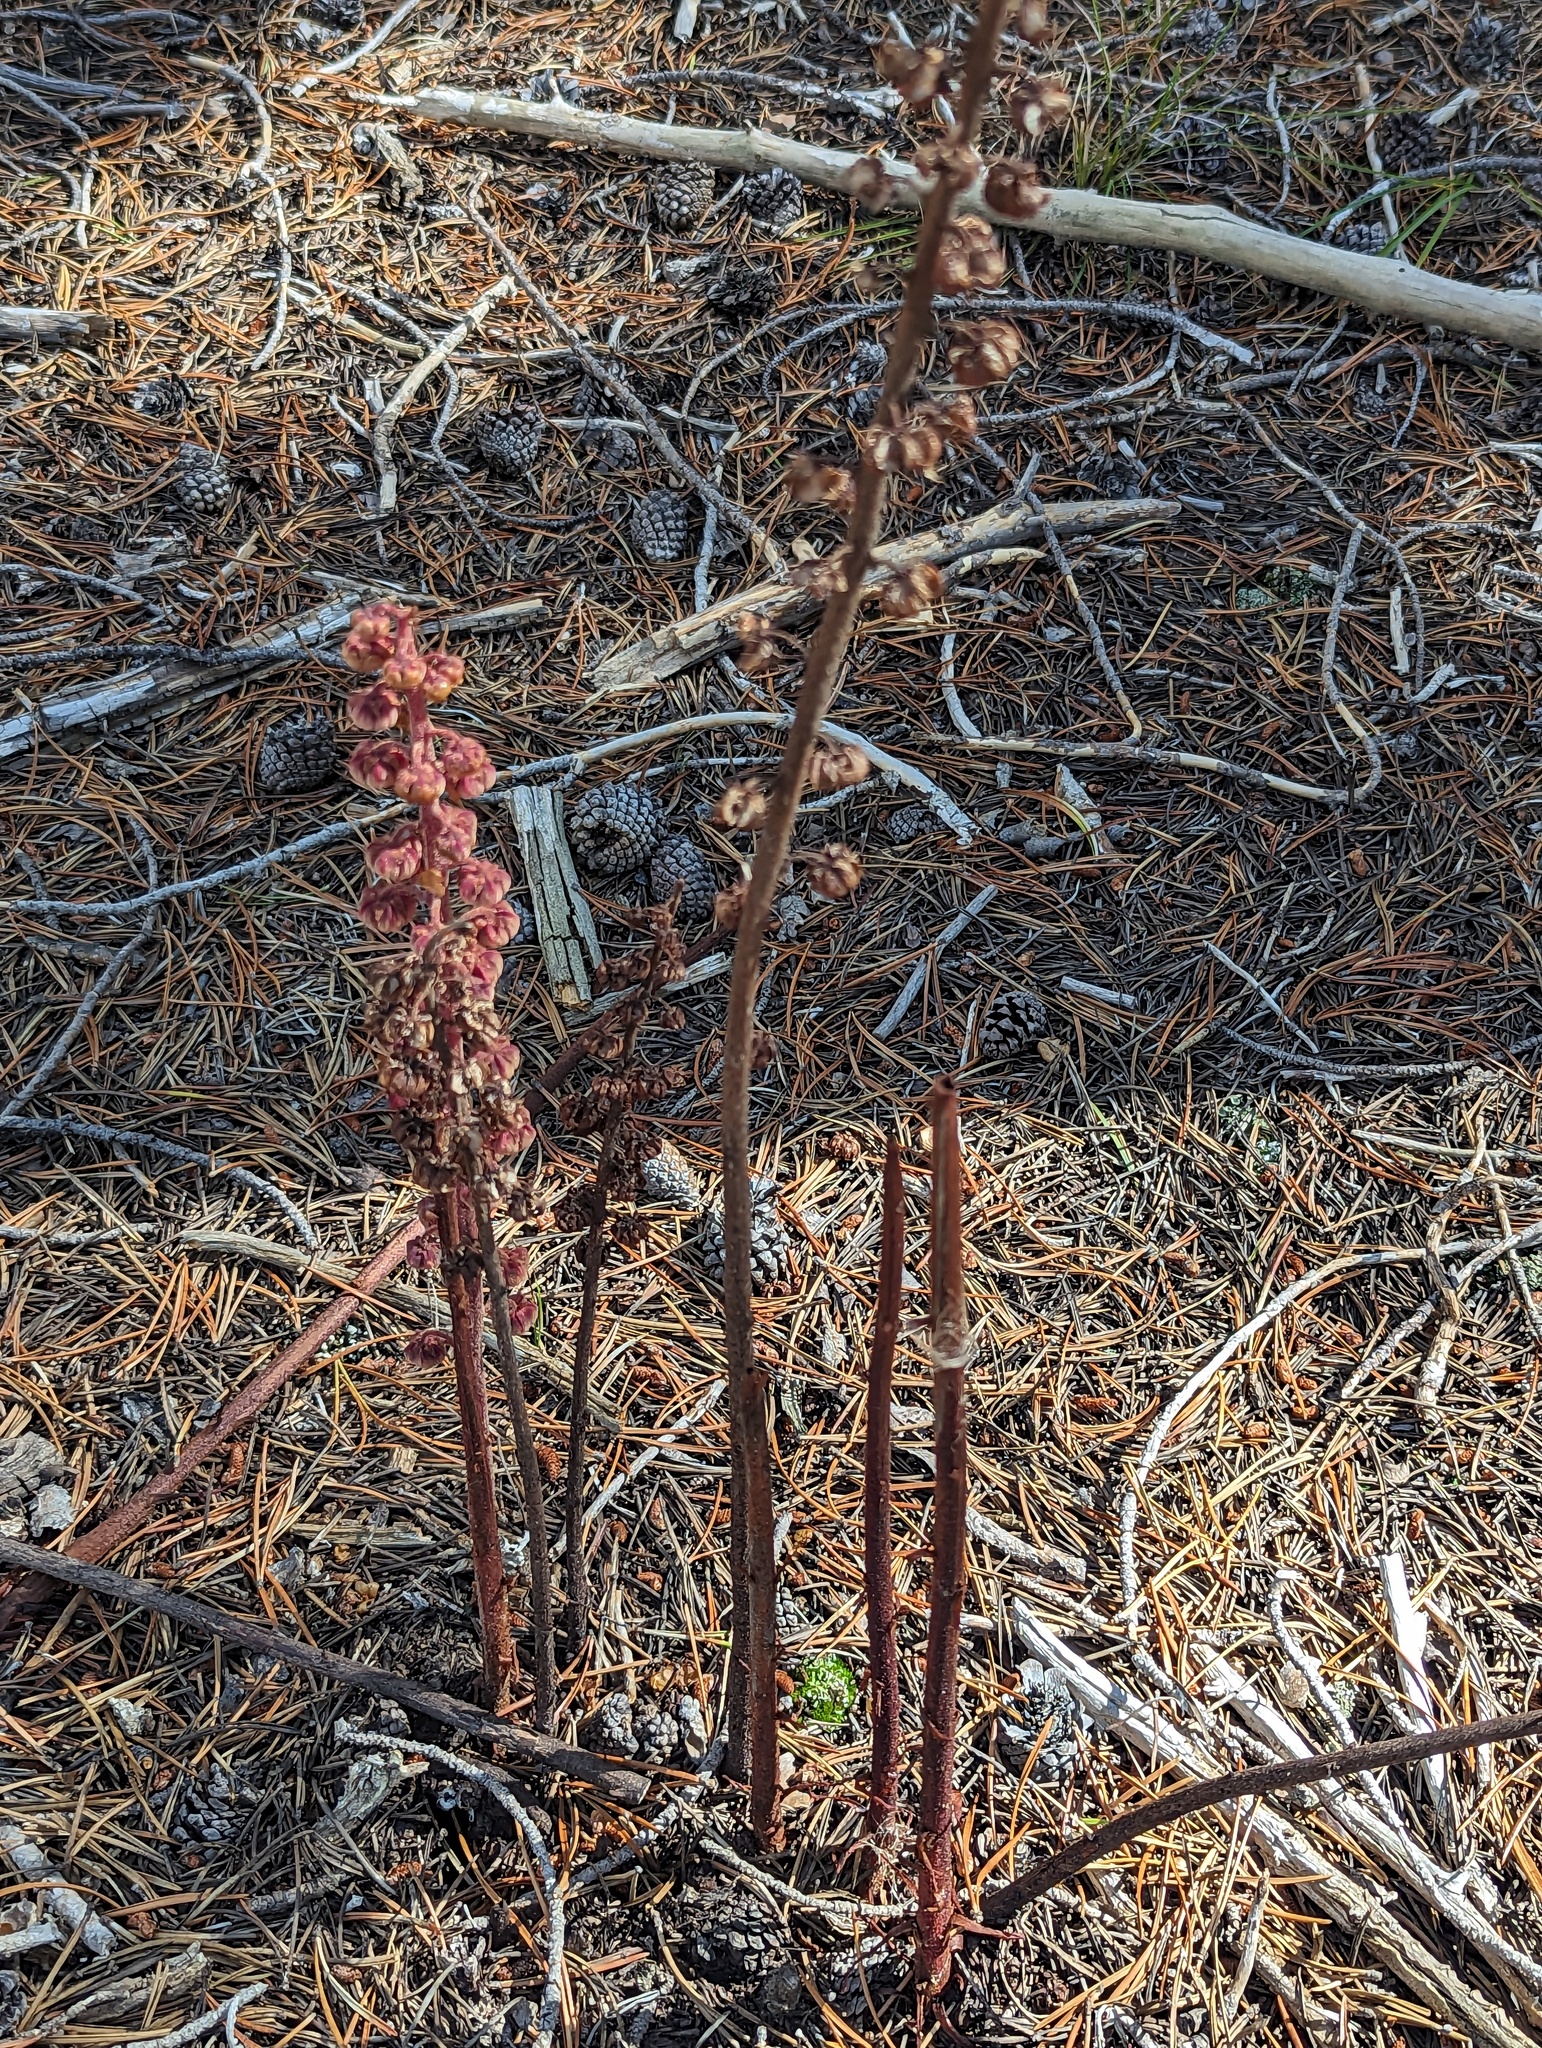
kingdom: Plantae
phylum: Tracheophyta
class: Magnoliopsida
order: Ericales
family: Ericaceae
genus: Pterospora
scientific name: Pterospora andromedea
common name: Giant bird's-nest
